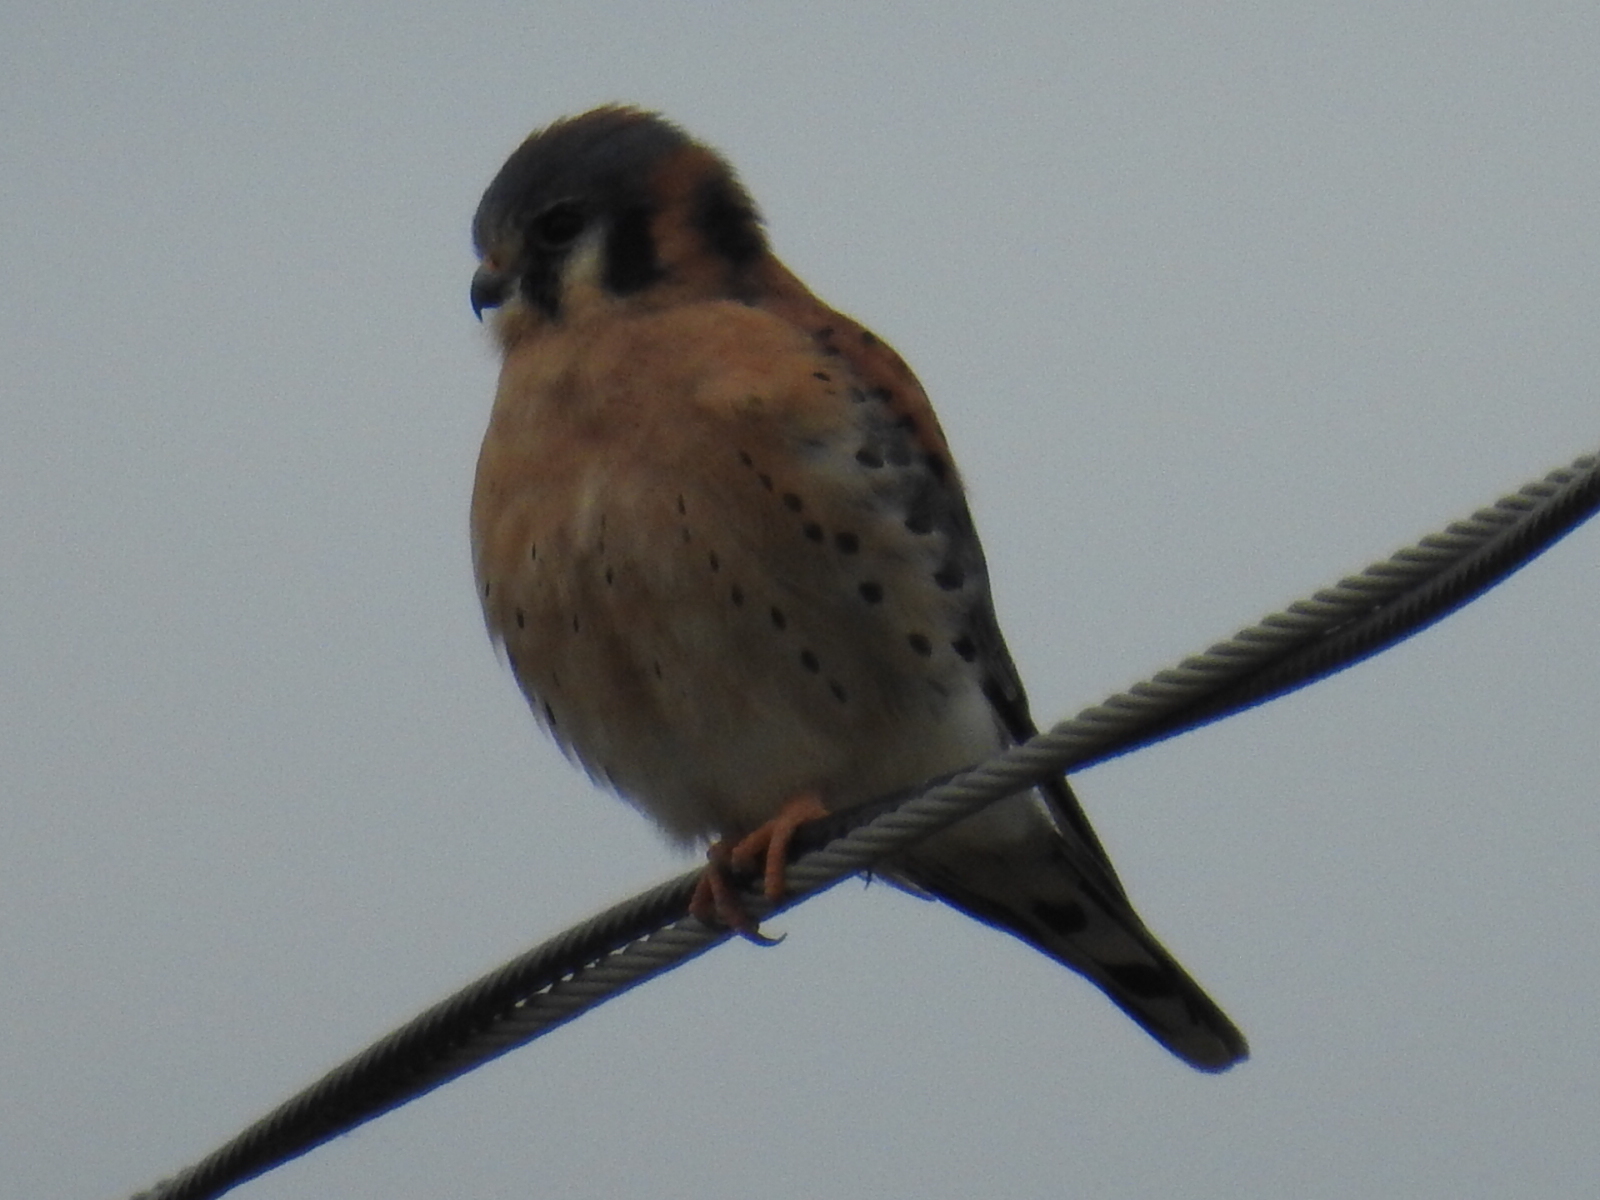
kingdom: Animalia
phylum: Chordata
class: Aves
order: Falconiformes
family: Falconidae
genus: Falco
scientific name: Falco sparverius
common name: American kestrel
